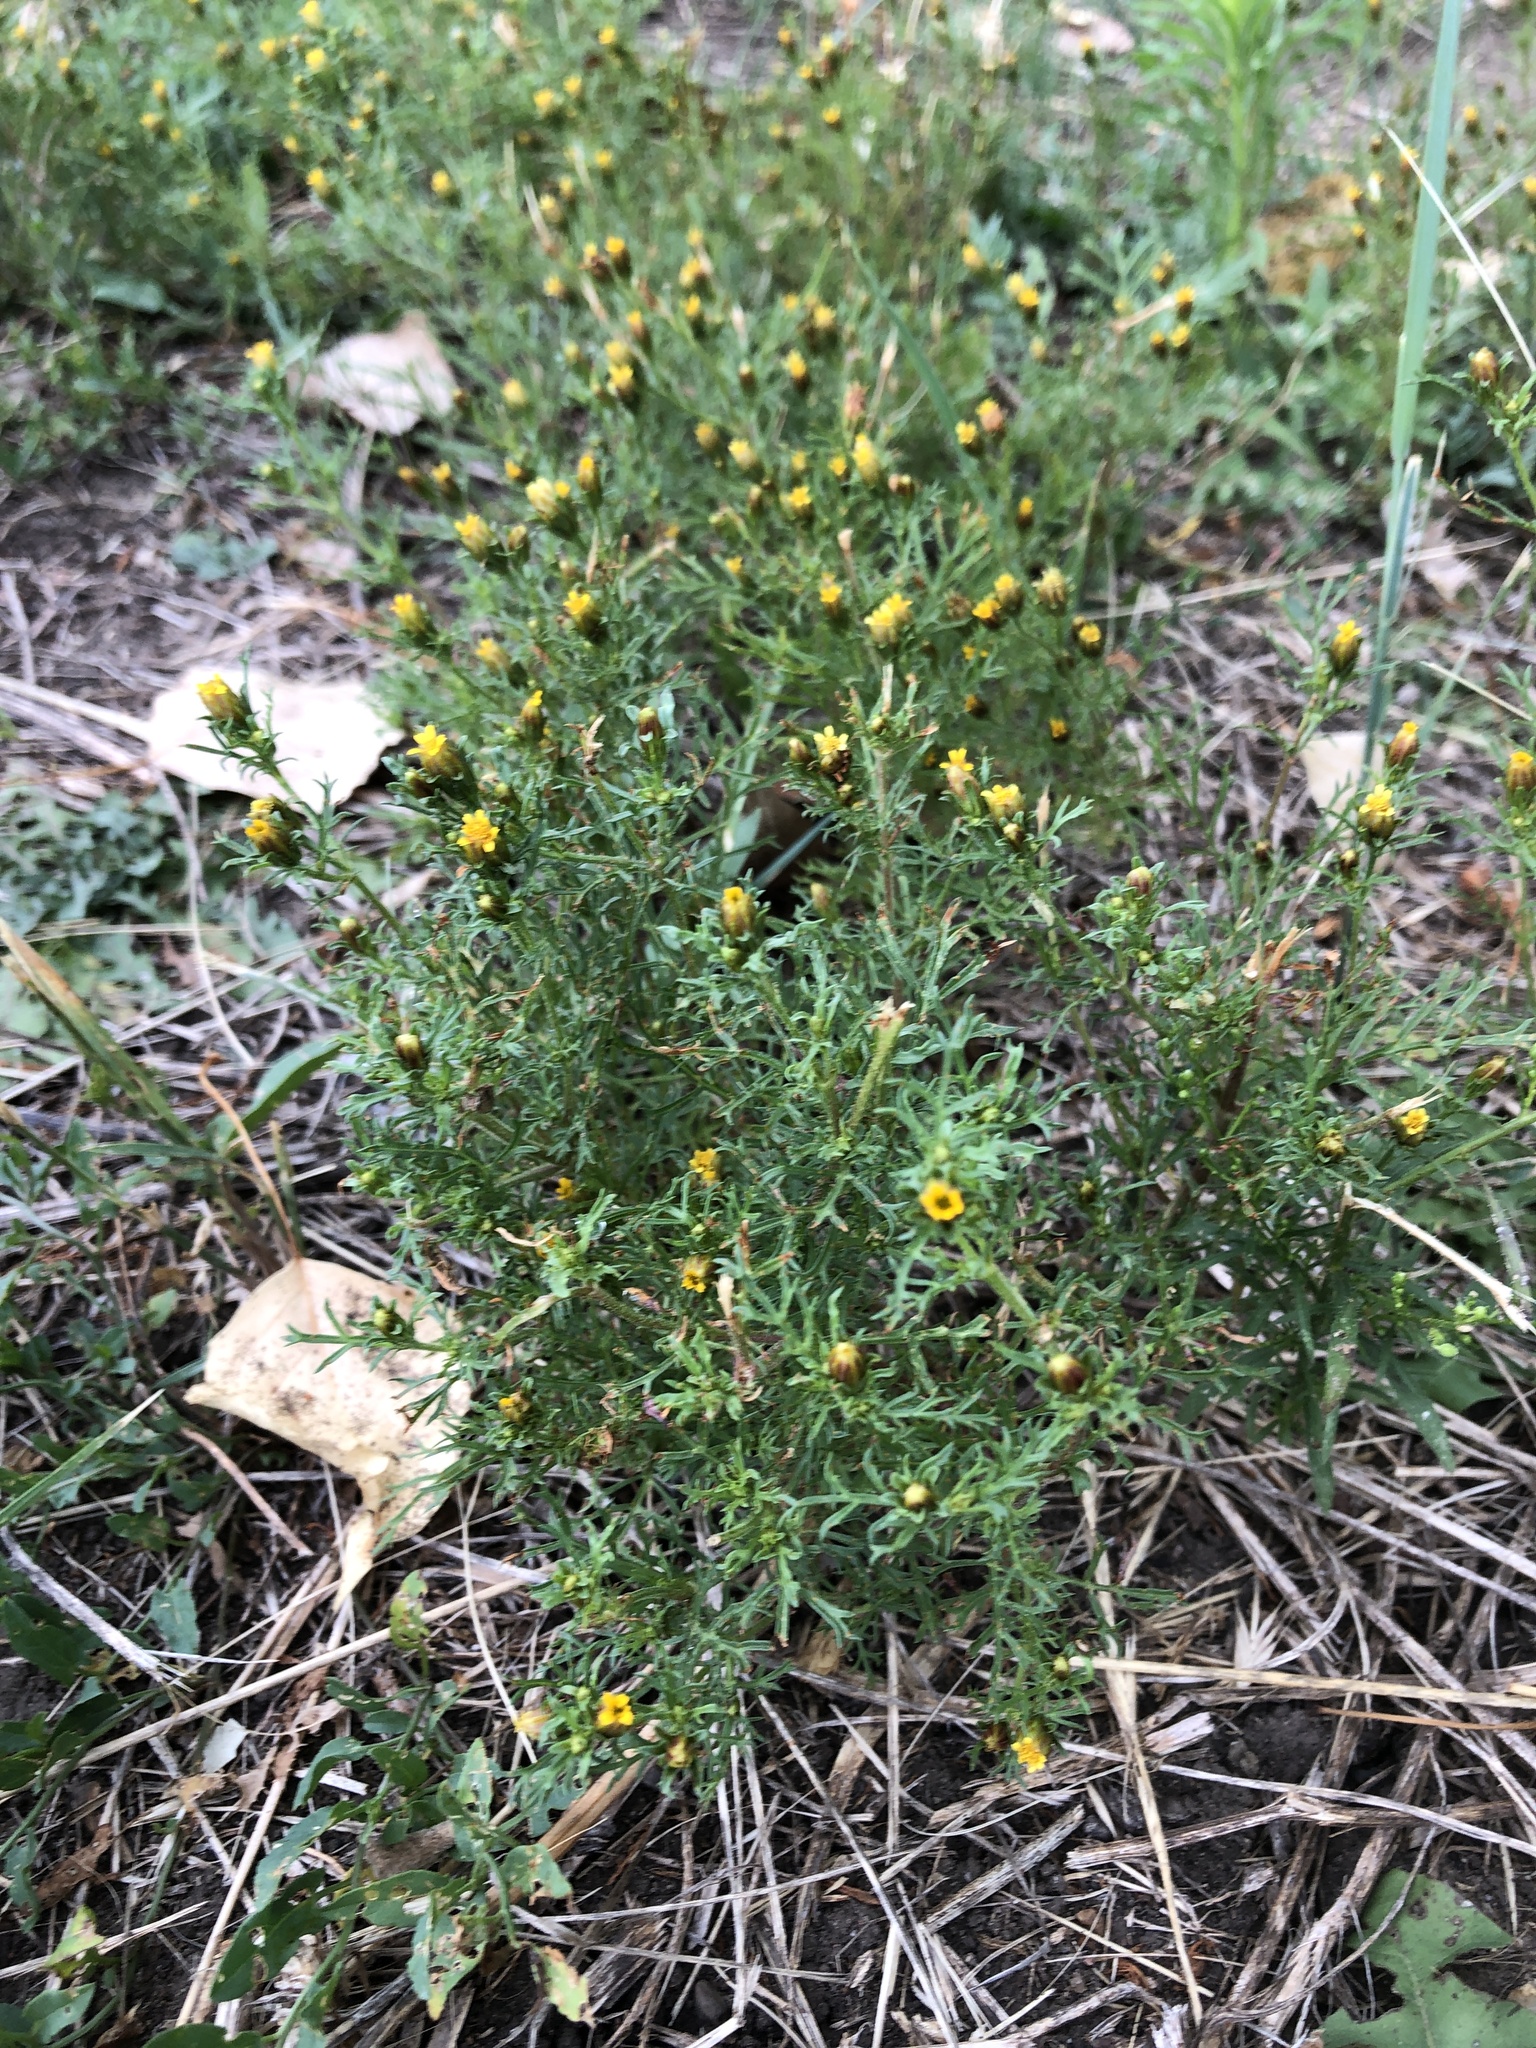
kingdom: Plantae
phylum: Tracheophyta
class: Magnoliopsida
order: Asterales
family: Asteraceae
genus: Dyssodia
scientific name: Dyssodia papposa
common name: Dogweed
